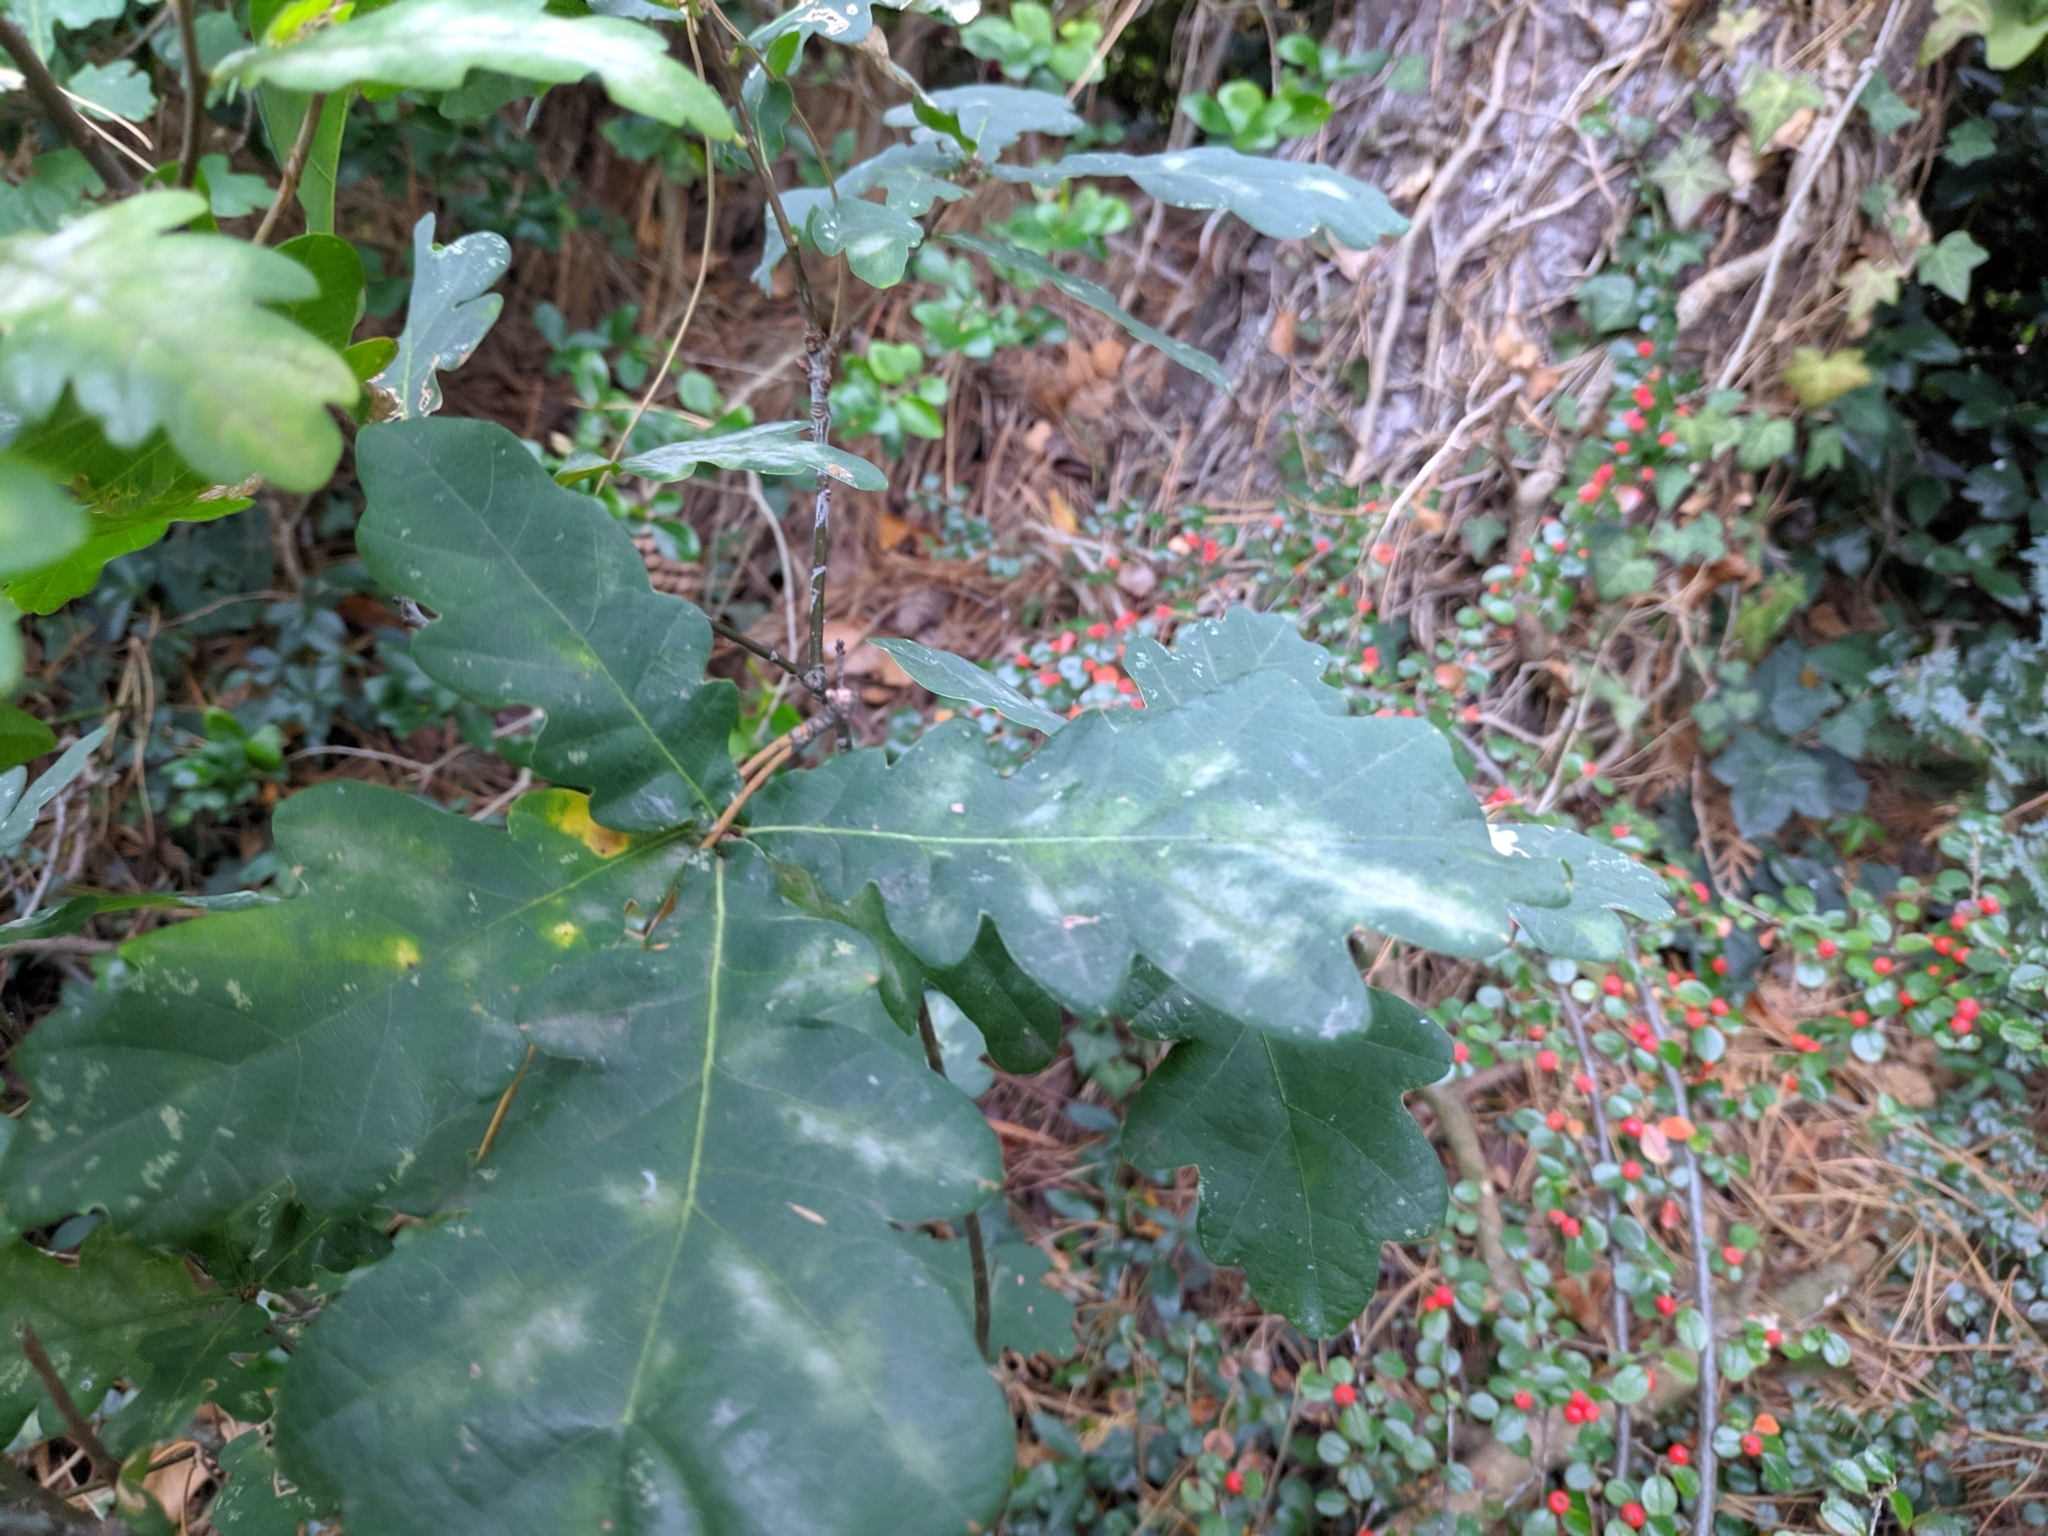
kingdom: Fungi
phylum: Ascomycota
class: Leotiomycetes
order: Helotiales
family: Erysiphaceae
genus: Erysiphe
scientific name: Erysiphe
